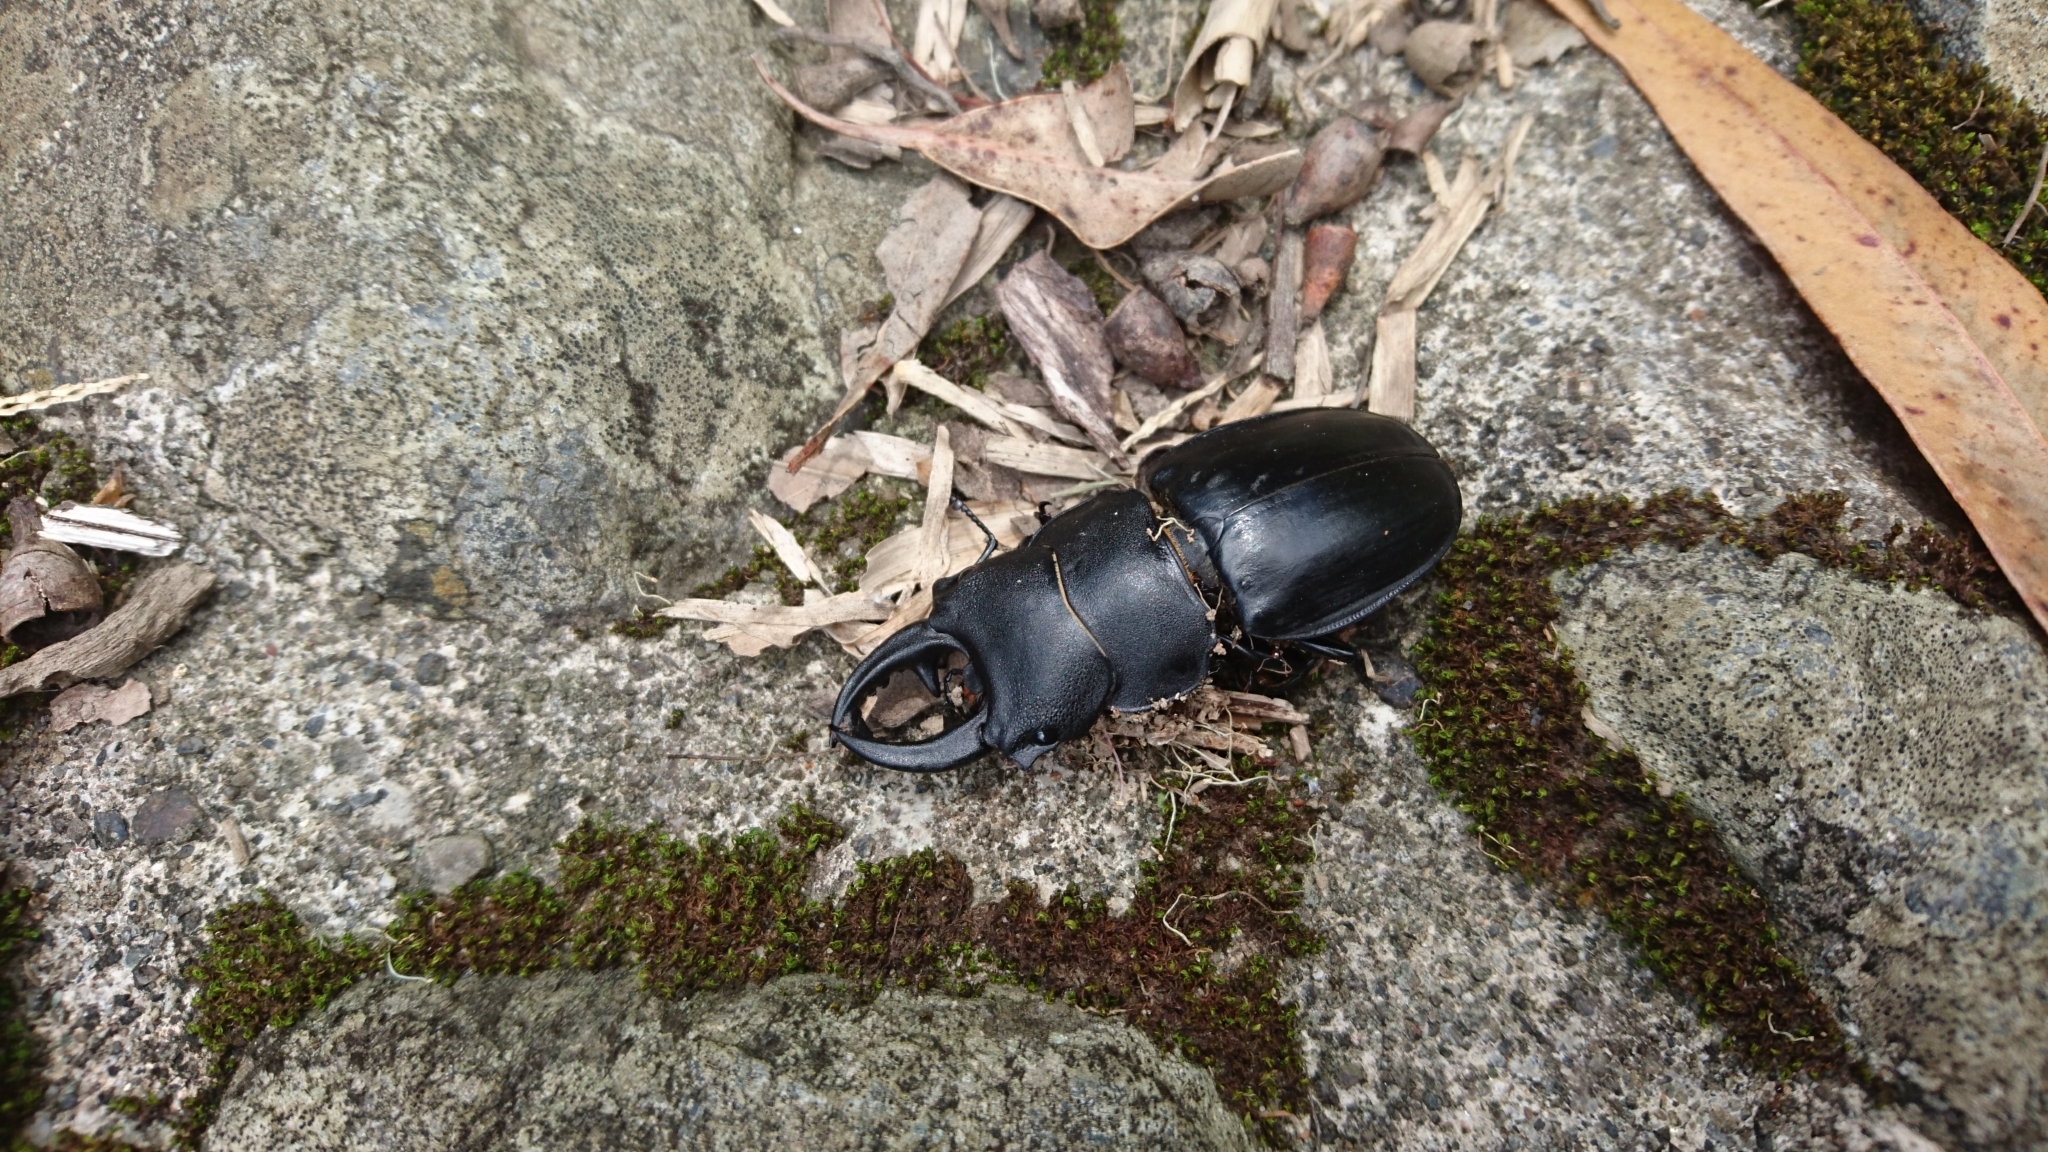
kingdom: Animalia
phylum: Arthropoda
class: Insecta
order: Coleoptera
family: Lucanidae
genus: Odontolabis
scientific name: Odontolabis leuthneri
